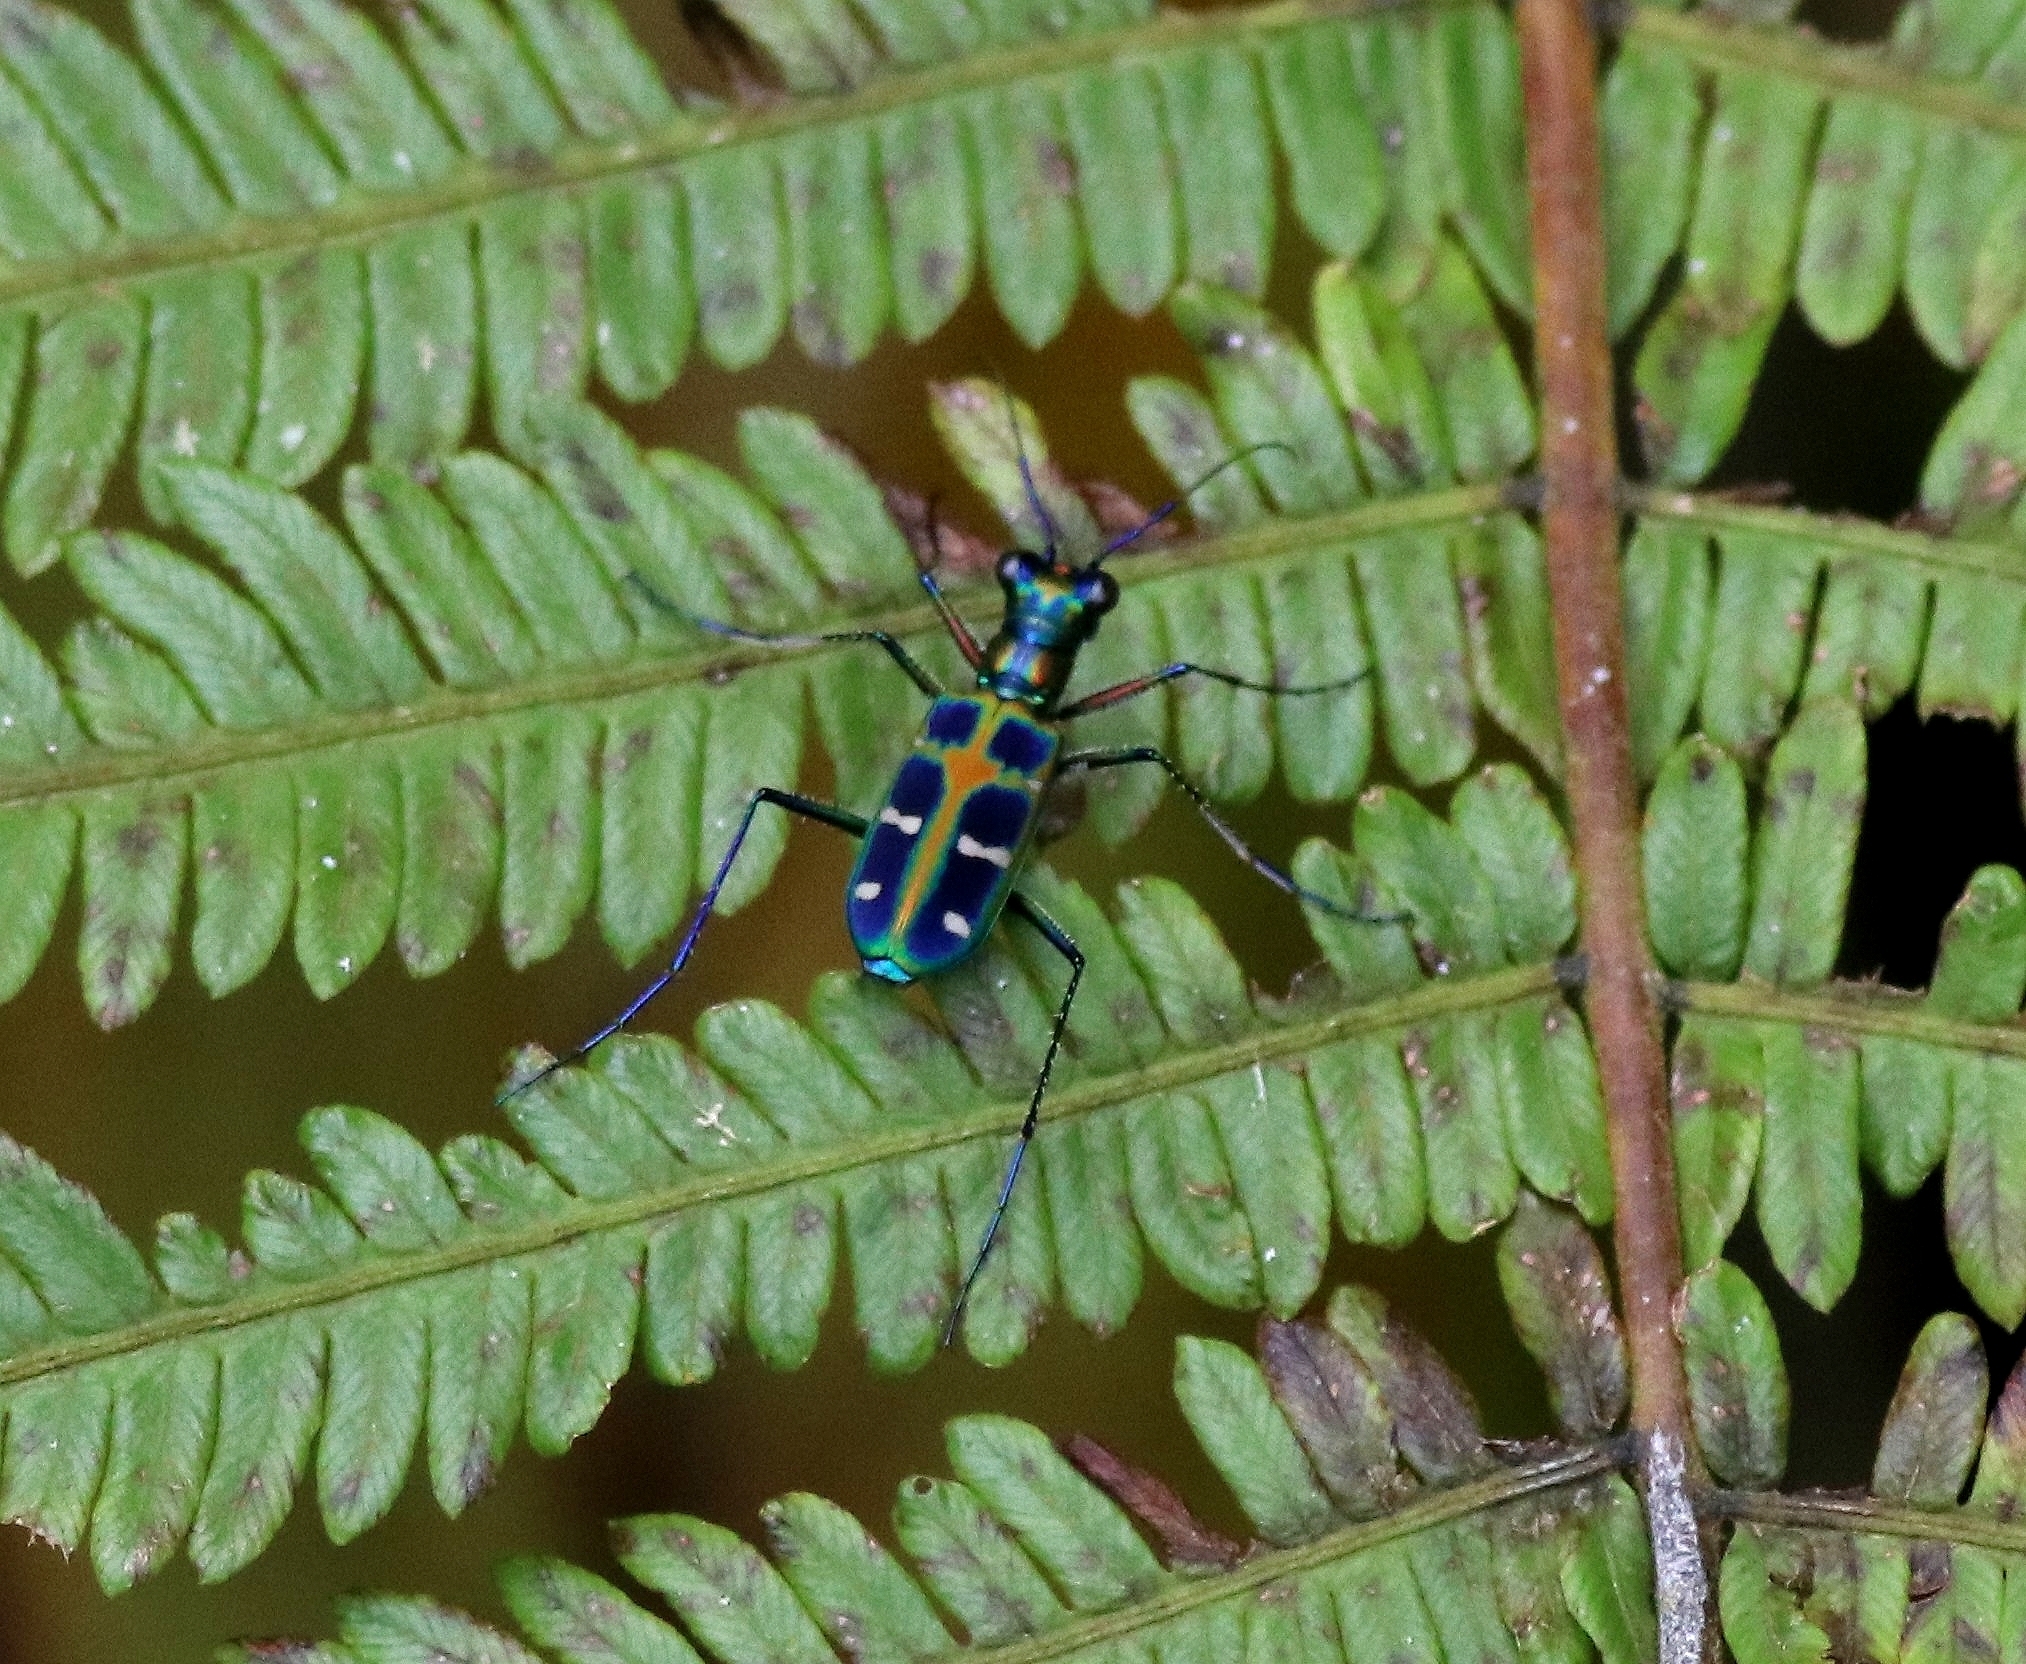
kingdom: Animalia
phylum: Arthropoda
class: Insecta
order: Coleoptera
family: Carabidae
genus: Cicindela
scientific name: Cicindela barmanica
